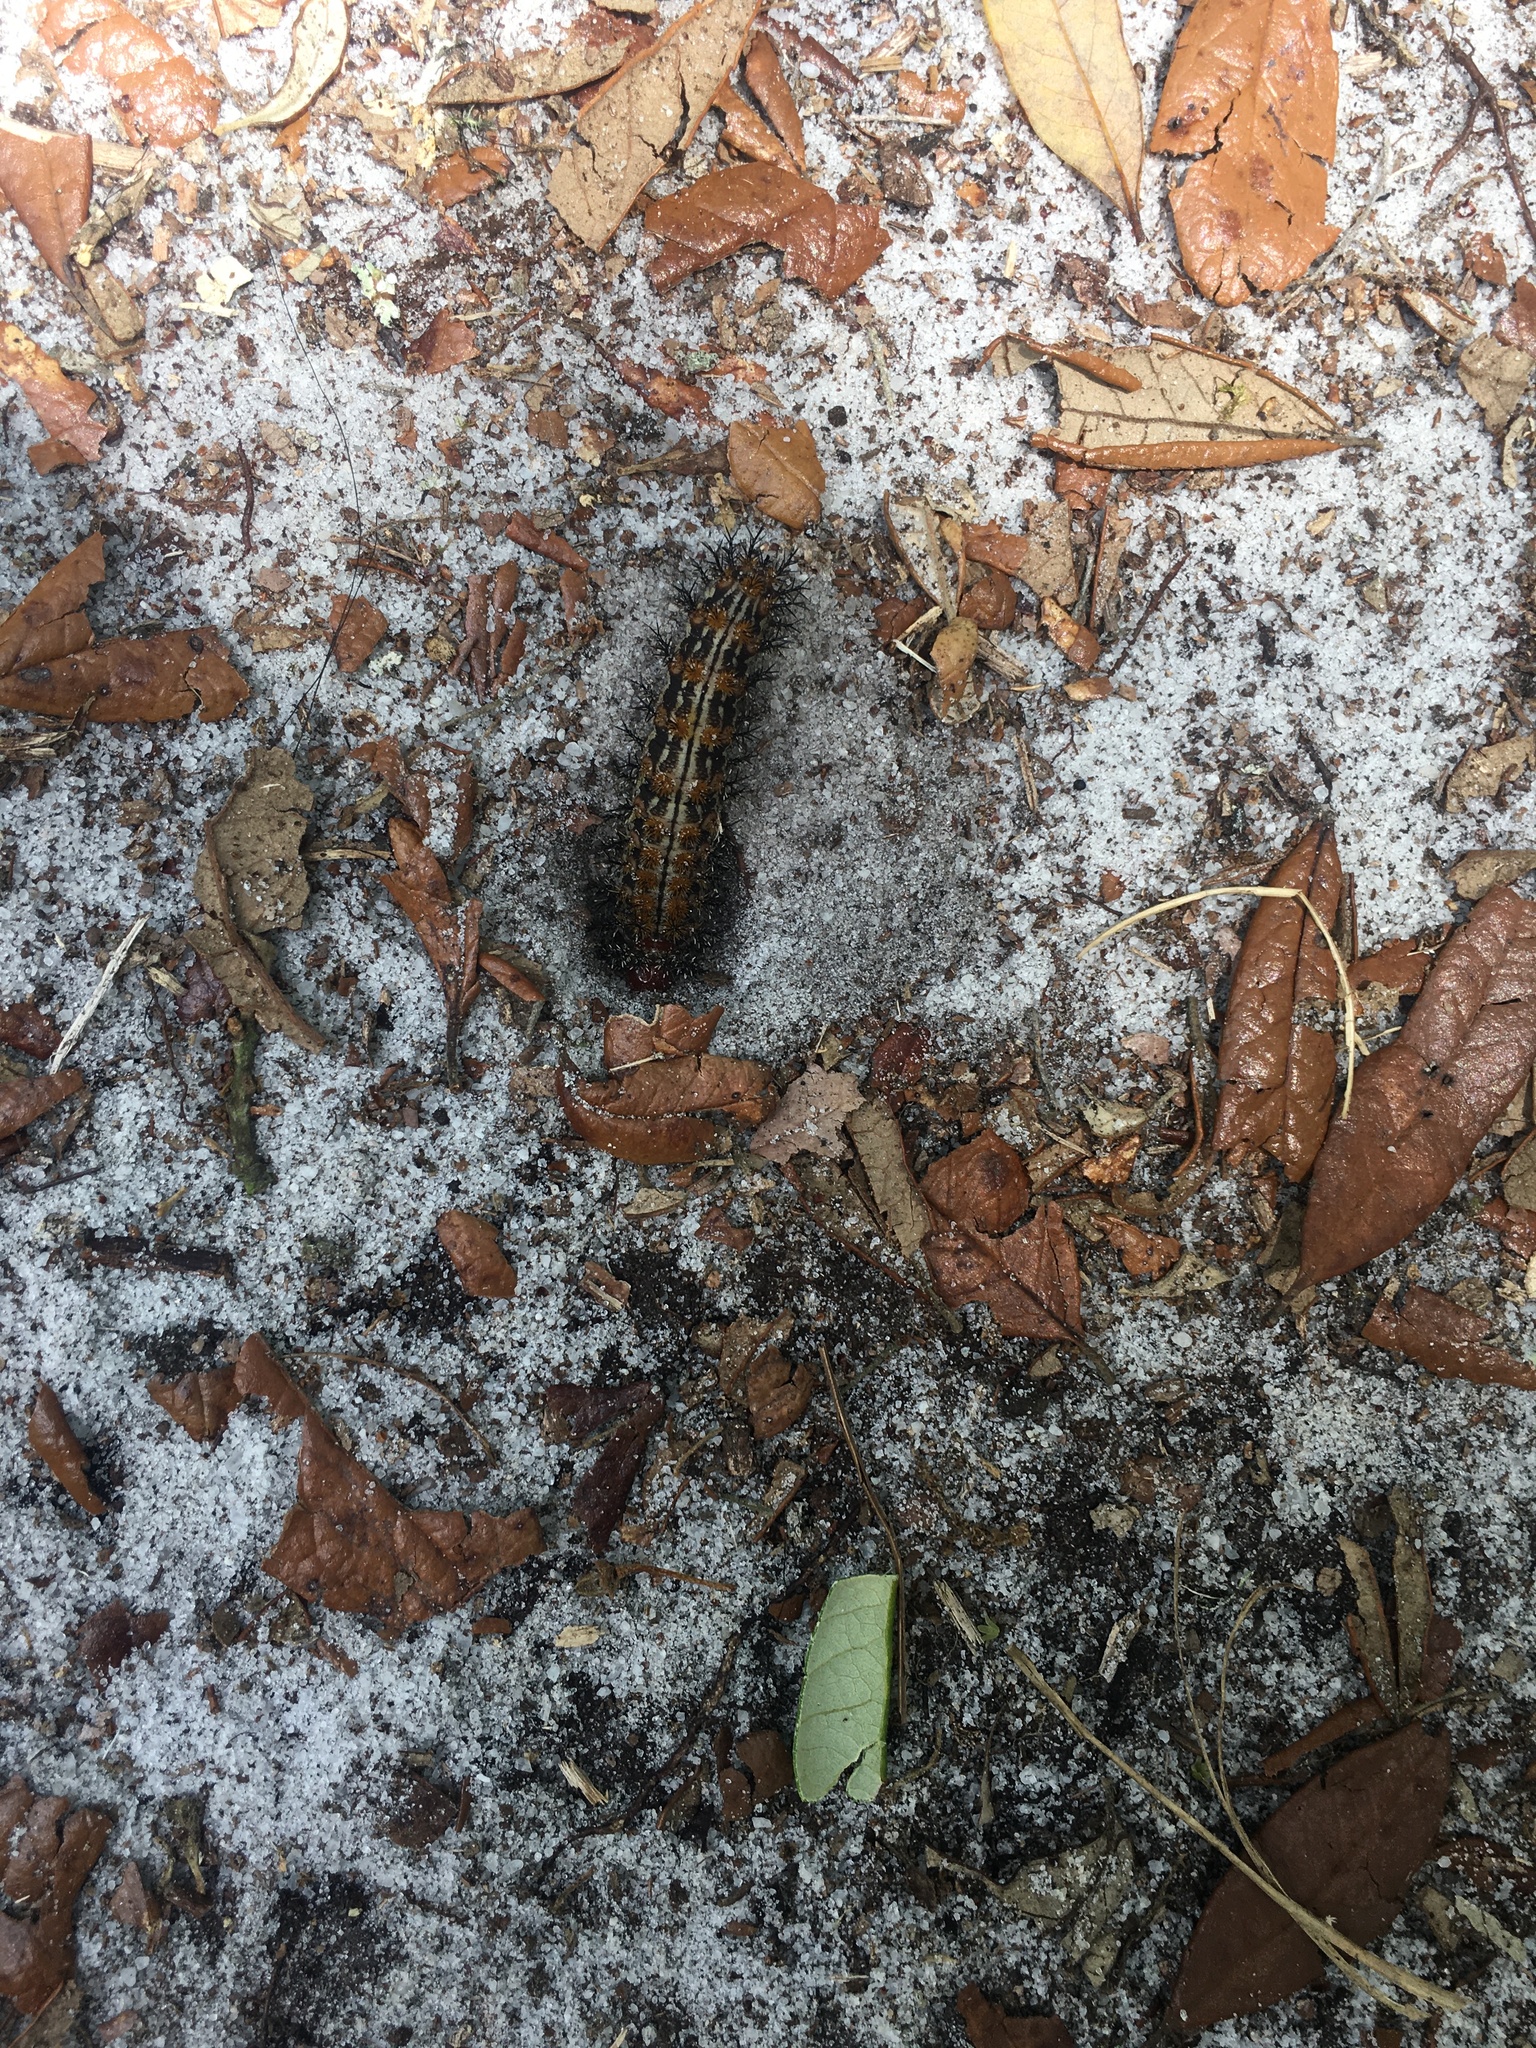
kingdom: Animalia
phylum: Arthropoda
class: Insecta
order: Lepidoptera
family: Saturniidae
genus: Hemileuca
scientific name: Hemileuca maia
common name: Eastern buckmoth
